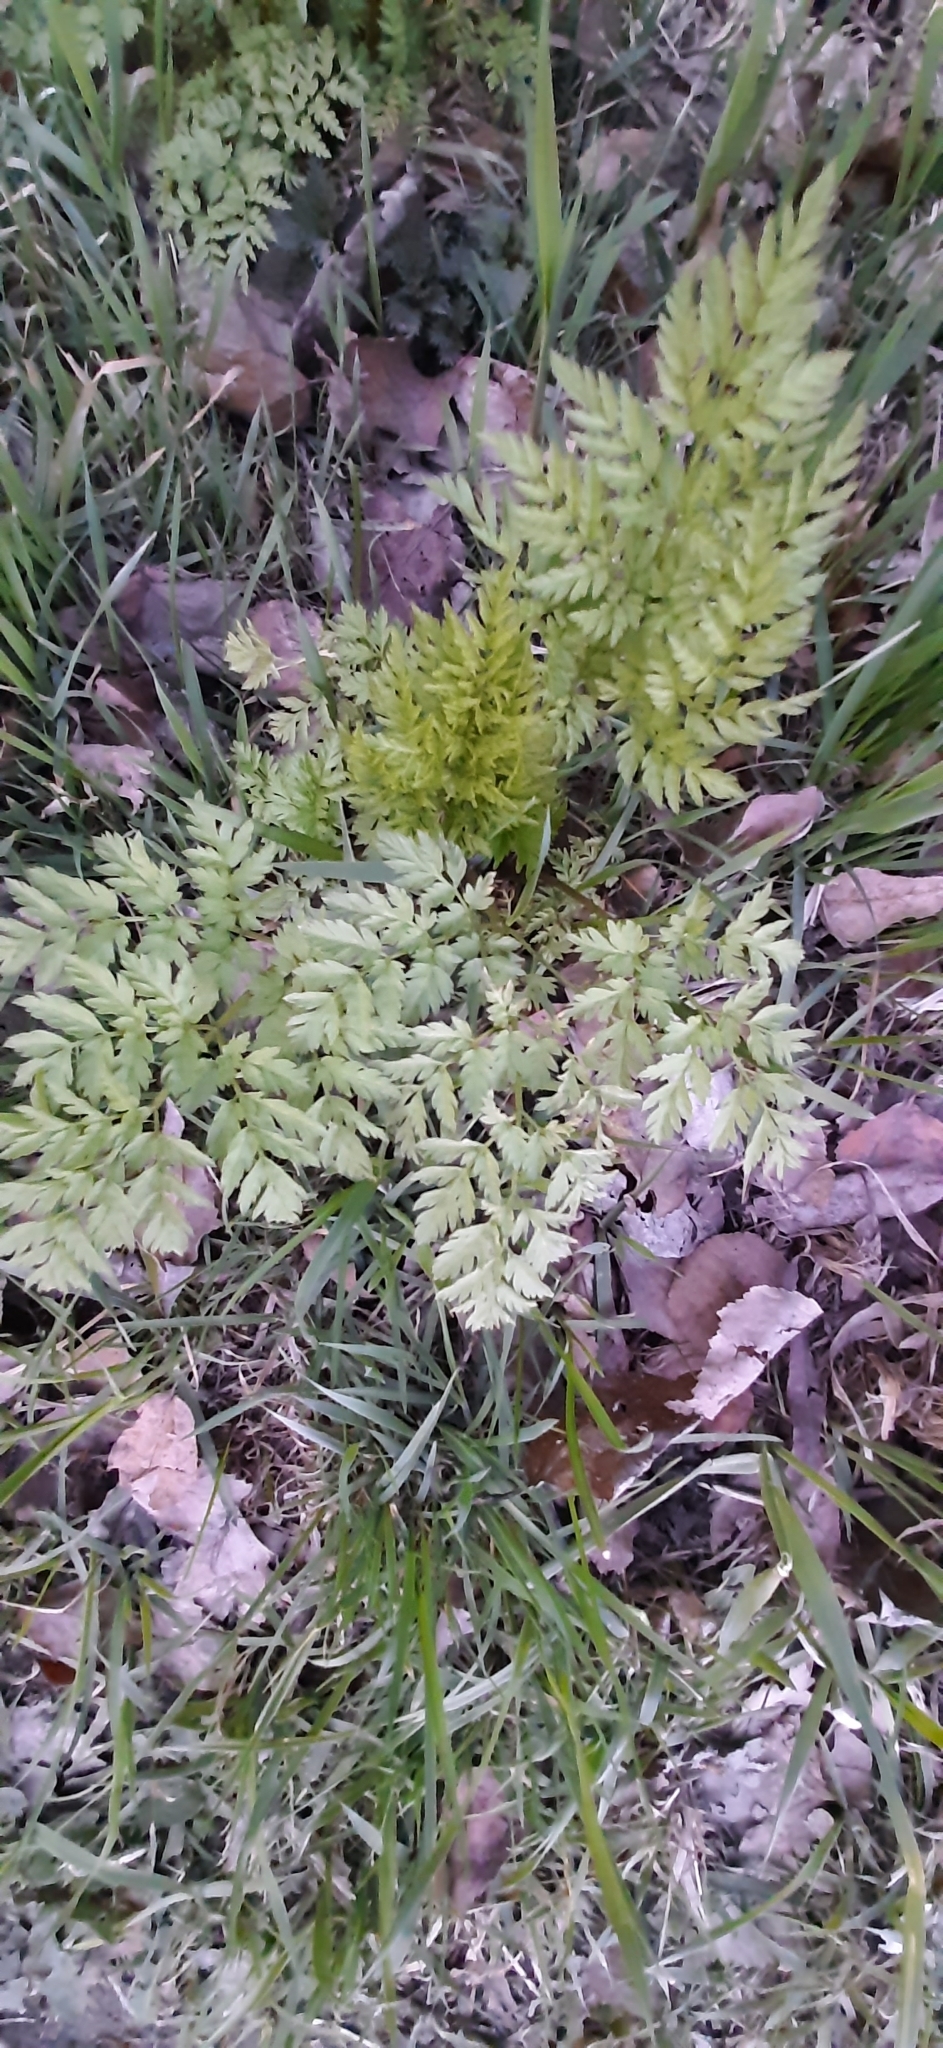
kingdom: Plantae
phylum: Tracheophyta
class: Magnoliopsida
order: Apiales
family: Apiaceae
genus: Anthriscus
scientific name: Anthriscus sylvestris
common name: Cow parsley
